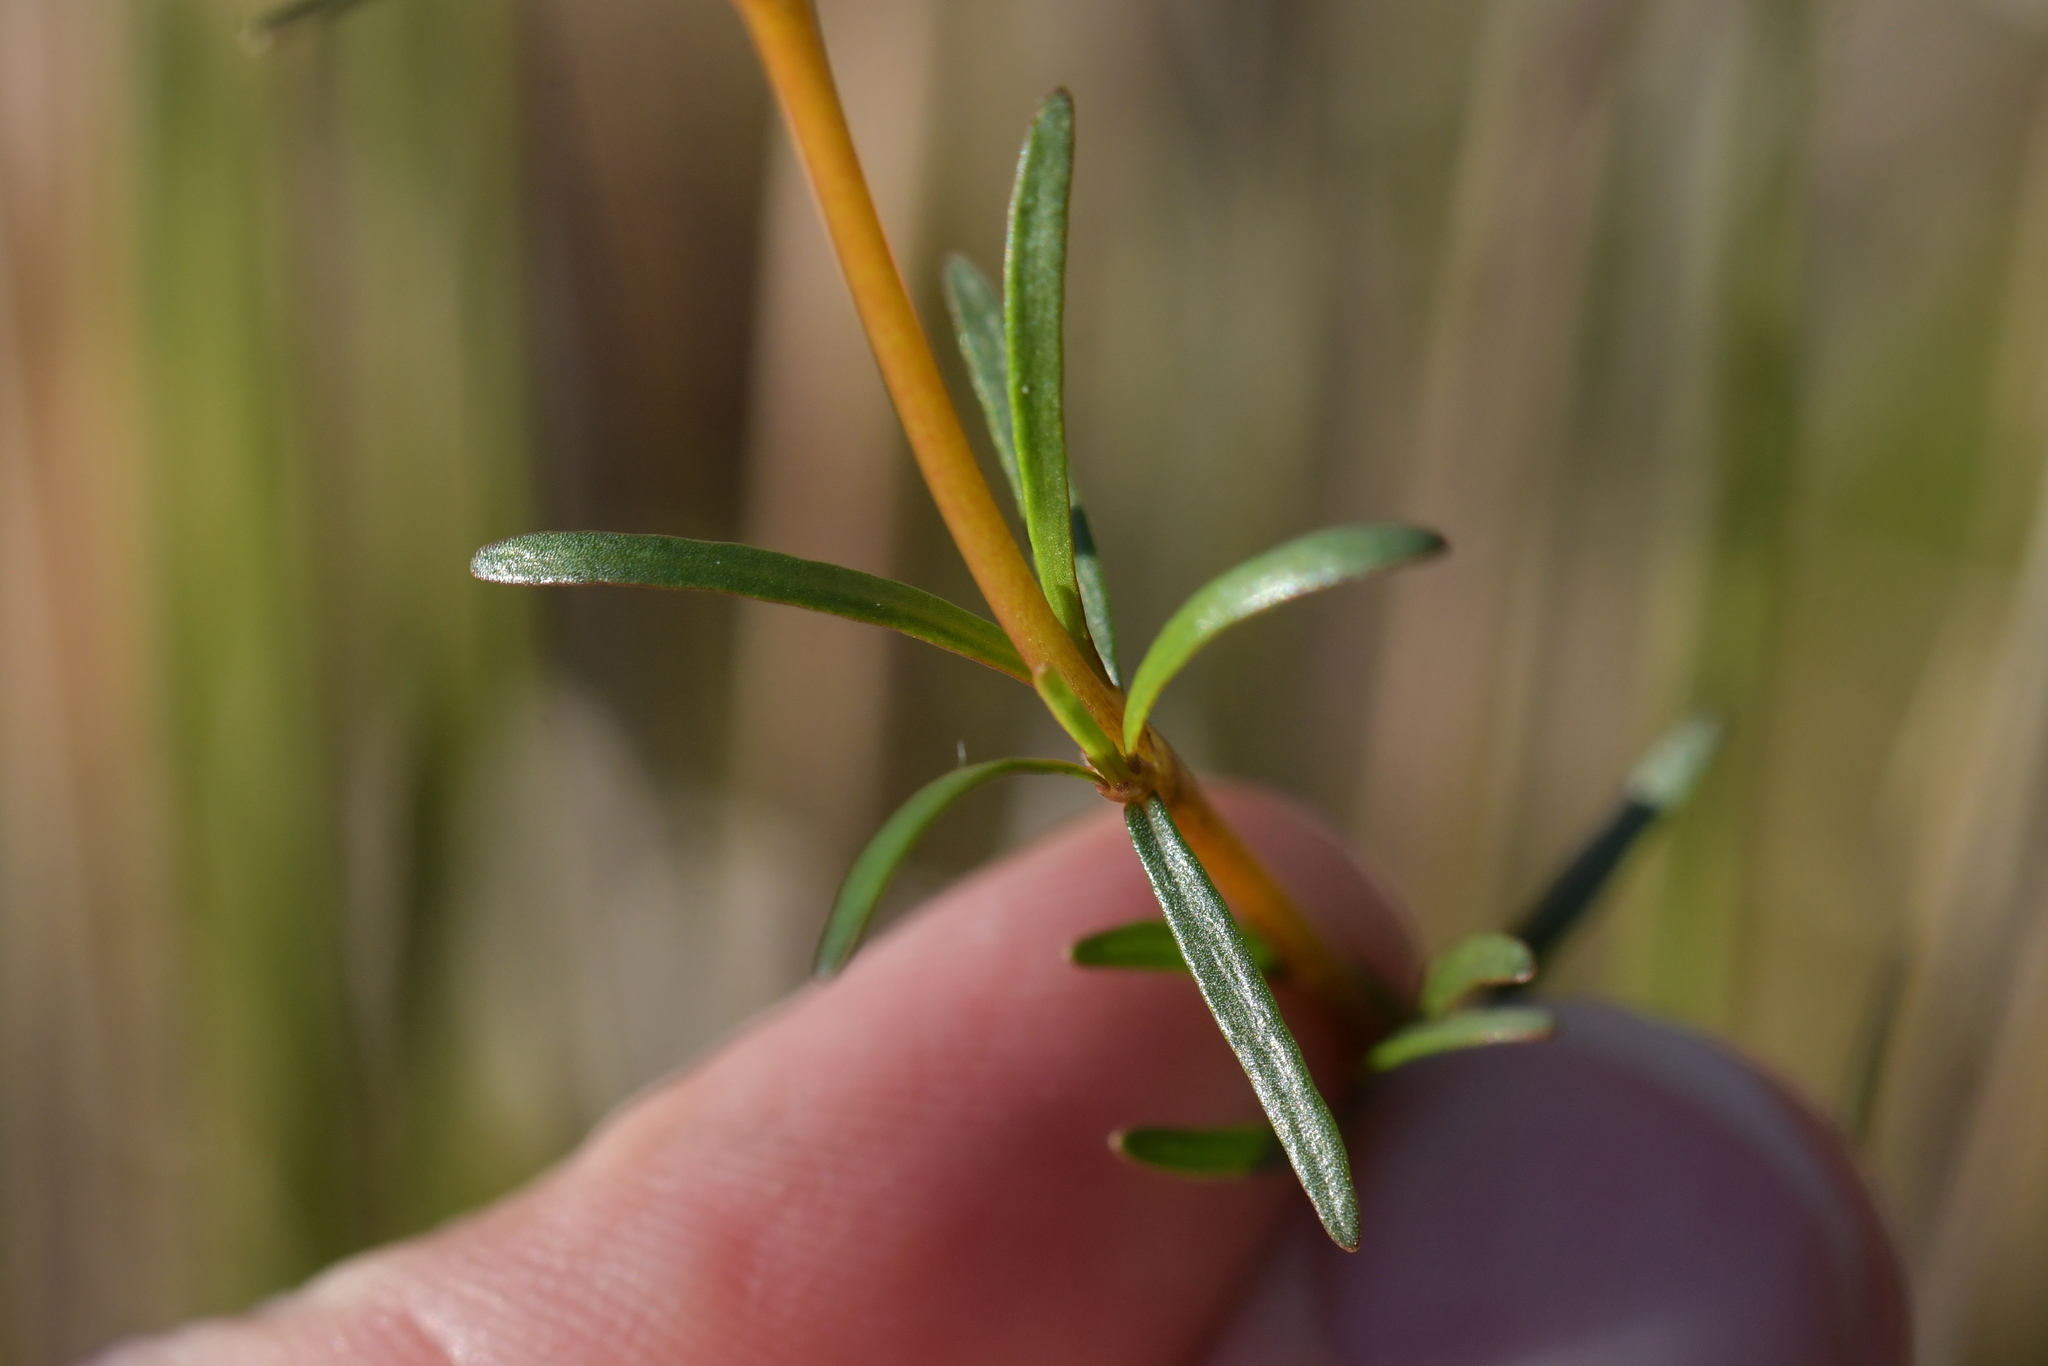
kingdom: Plantae
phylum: Tracheophyta
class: Magnoliopsida
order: Gentianales
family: Rubiaceae
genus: Coprosma
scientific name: Coprosma acerosa
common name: Sand coprosma
